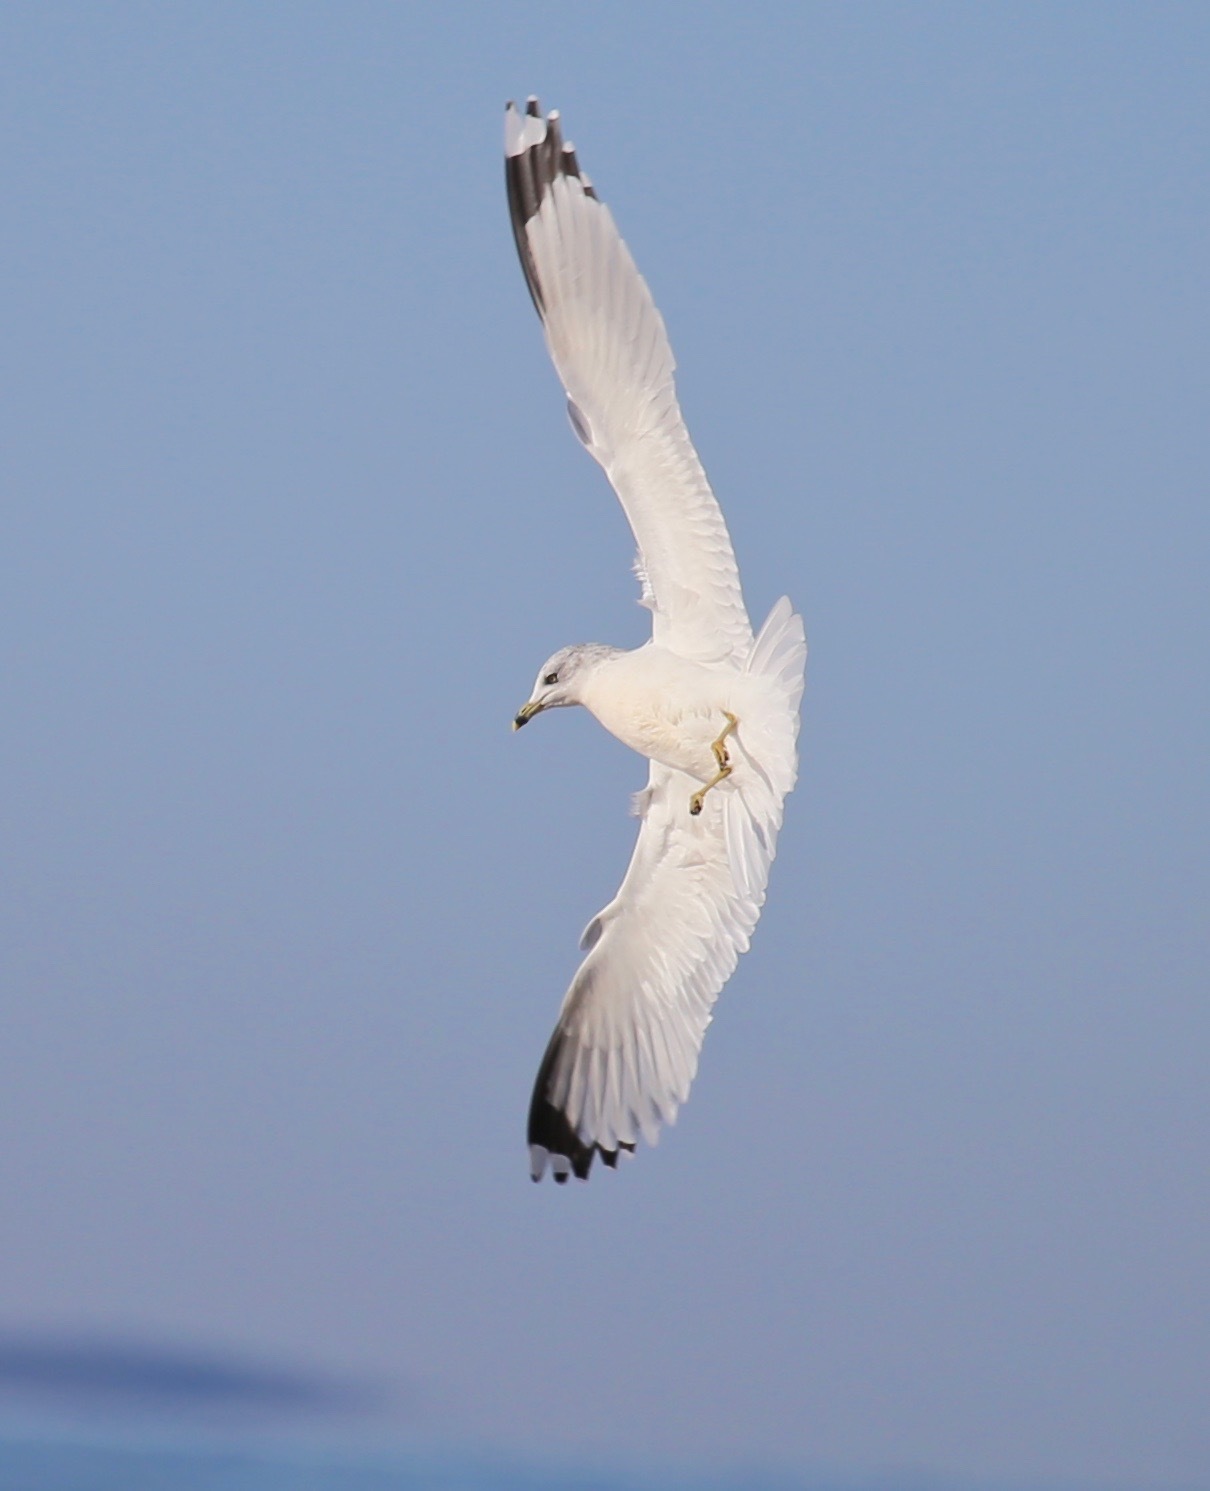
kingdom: Animalia
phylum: Chordata
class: Aves
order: Charadriiformes
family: Laridae
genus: Larus
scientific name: Larus delawarensis
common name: Ring-billed gull
